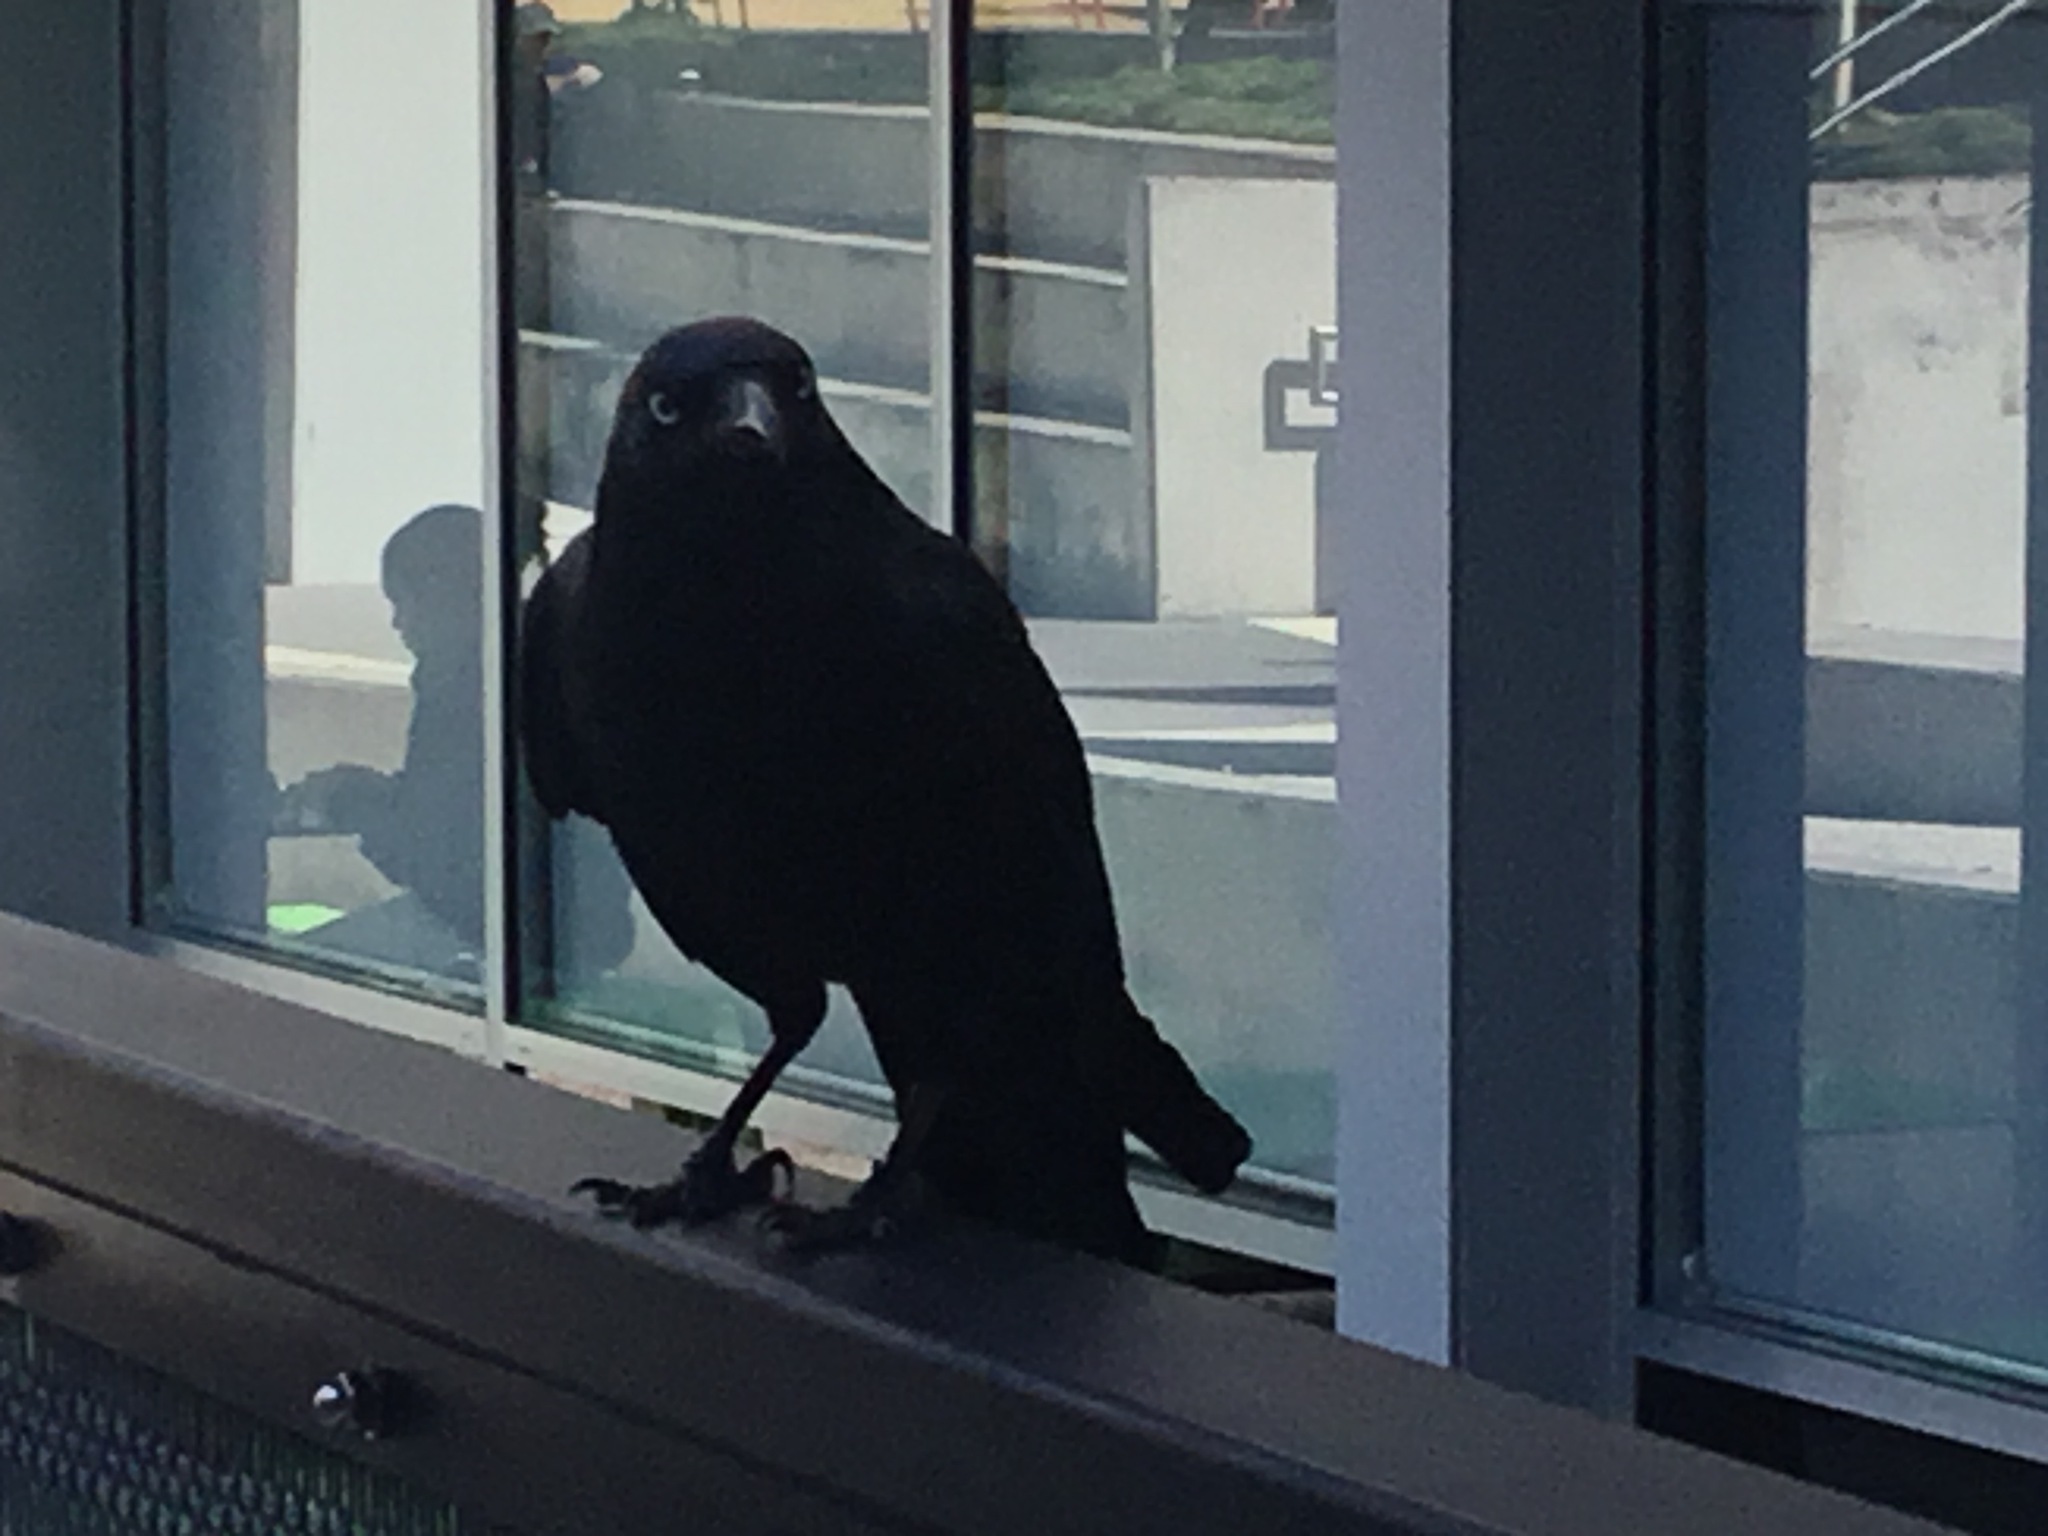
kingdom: Animalia
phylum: Chordata
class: Aves
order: Passeriformes
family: Corvidae
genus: Corvus
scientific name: Corvus orru
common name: Torresian crow
